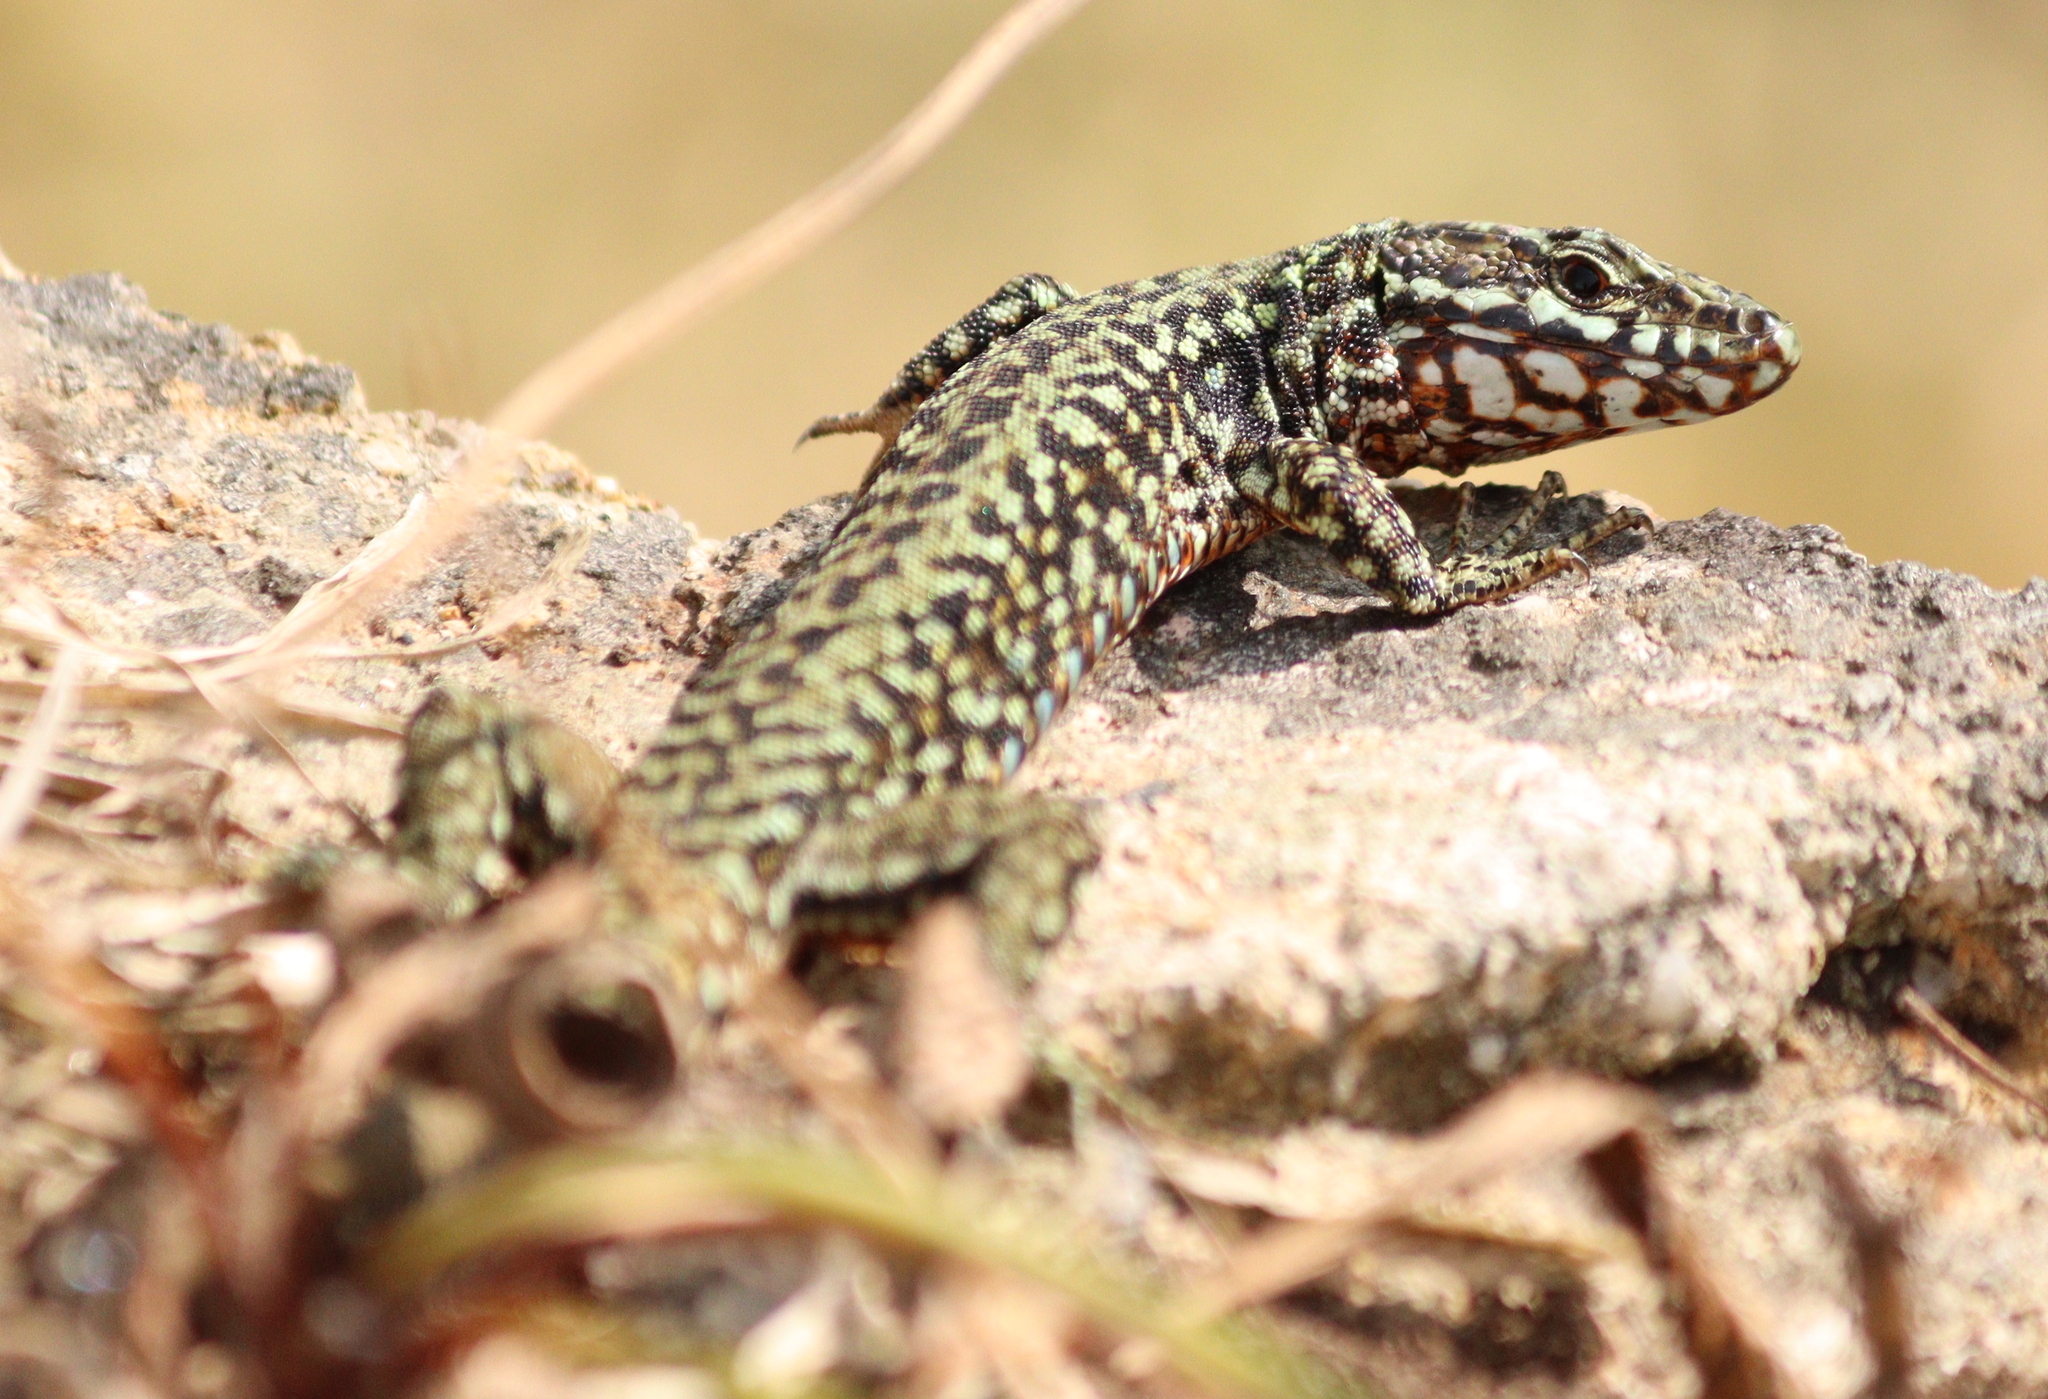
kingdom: Animalia
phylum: Chordata
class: Squamata
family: Lacertidae
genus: Podarcis
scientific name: Podarcis muralis
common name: Common wall lizard
